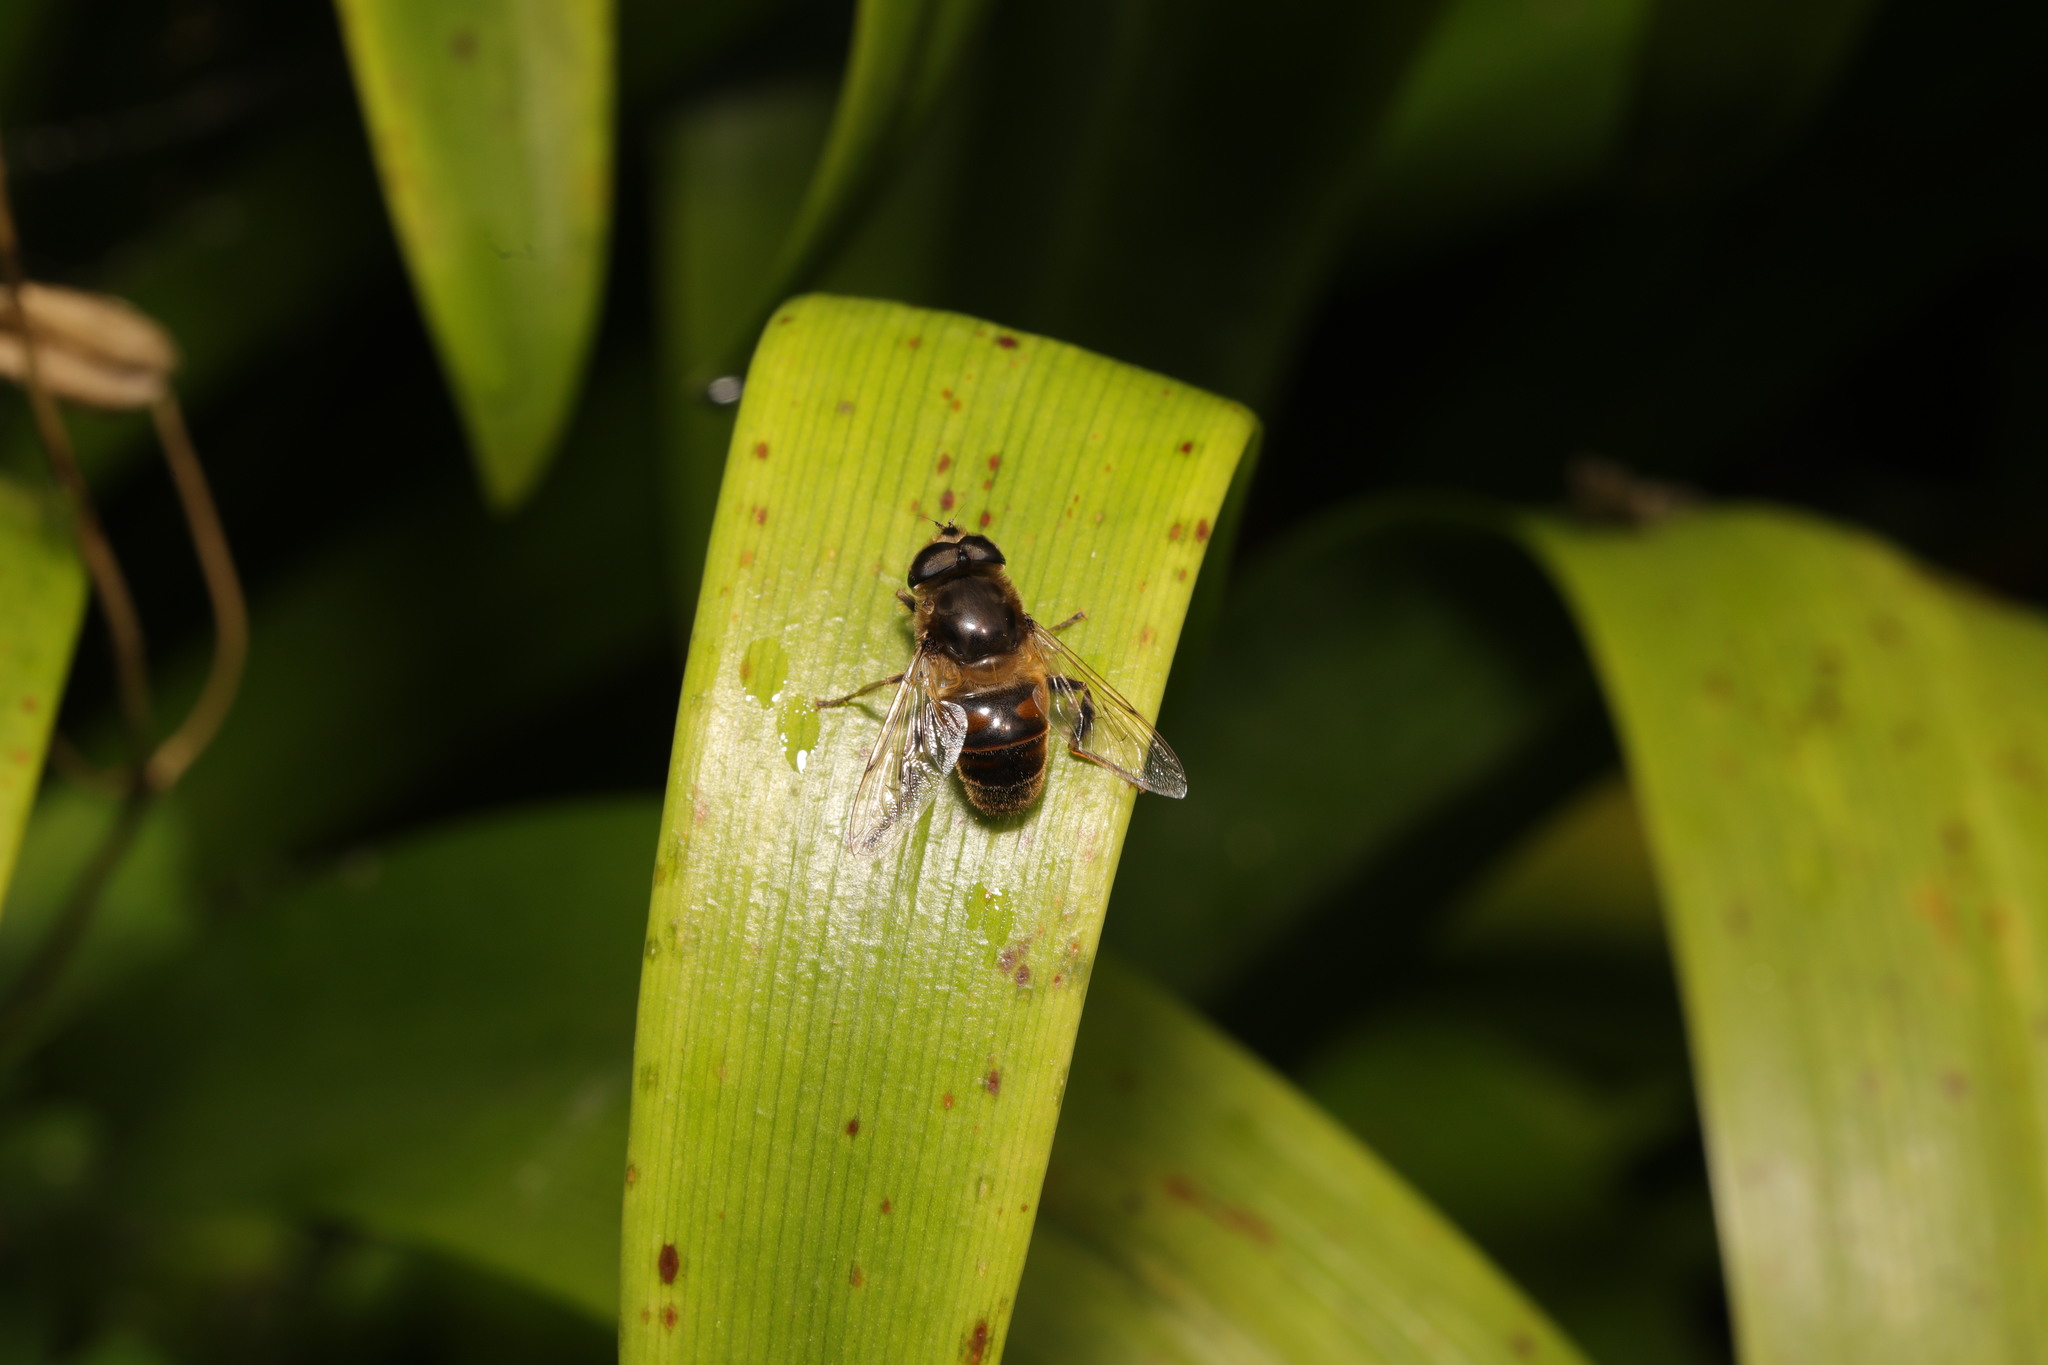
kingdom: Animalia
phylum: Arthropoda
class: Insecta
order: Diptera
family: Syrphidae
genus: Eristalis
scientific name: Eristalis tenax
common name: Drone fly
